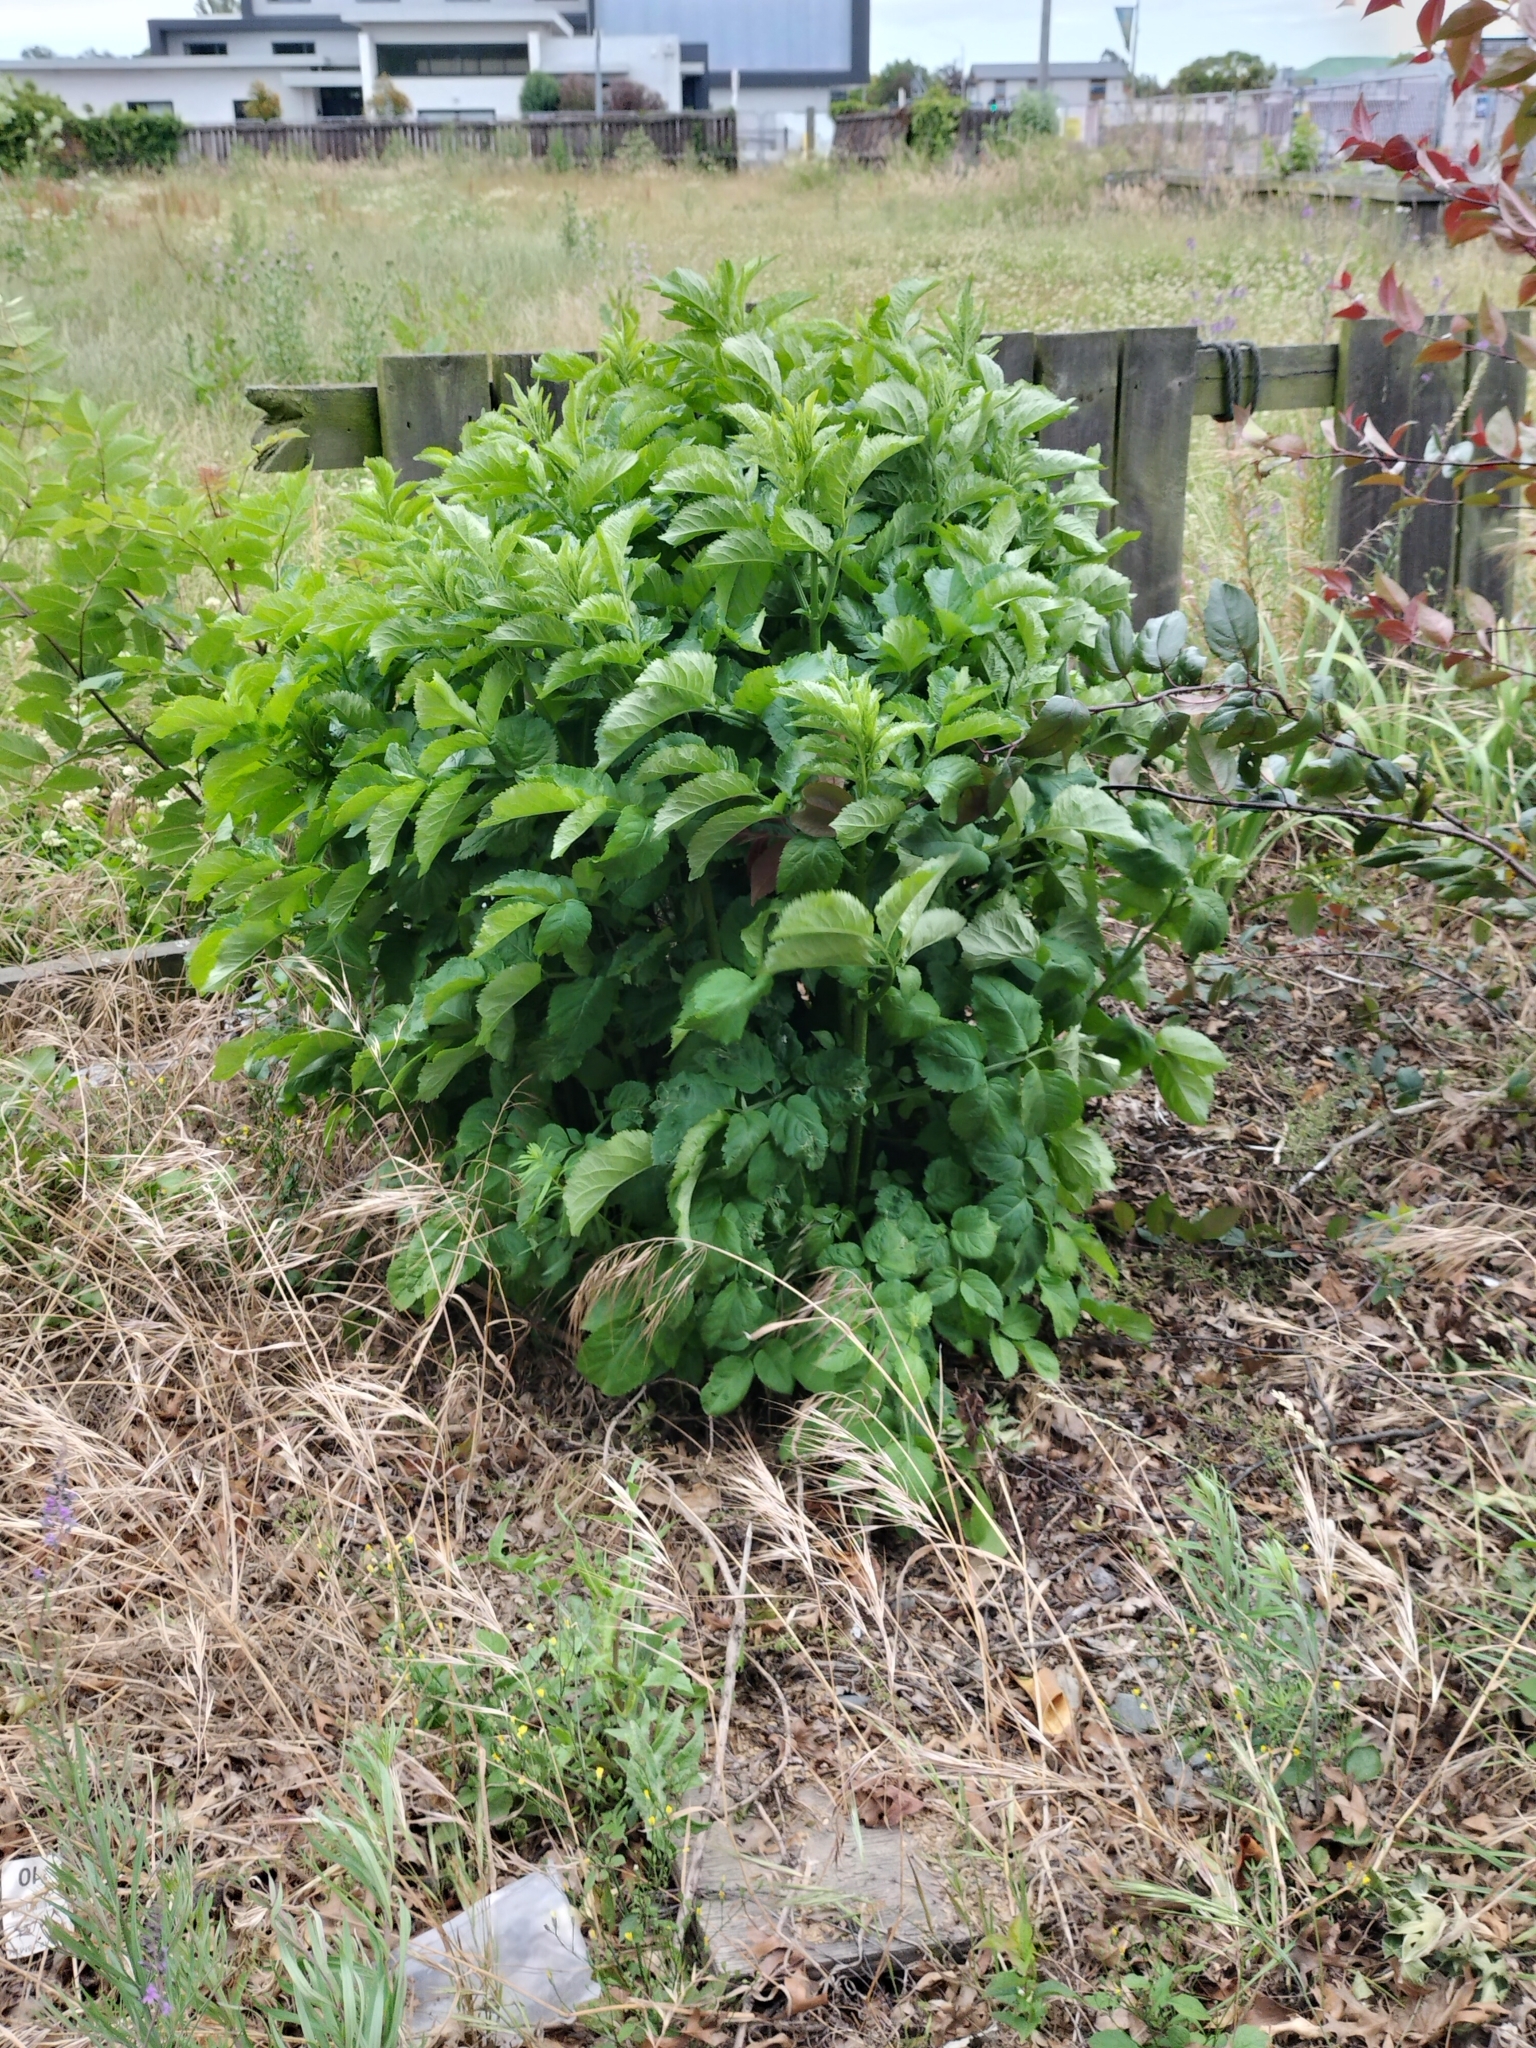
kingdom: Plantae
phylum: Tracheophyta
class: Magnoliopsida
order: Dipsacales
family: Viburnaceae
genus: Sambucus
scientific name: Sambucus nigra
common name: Elder
